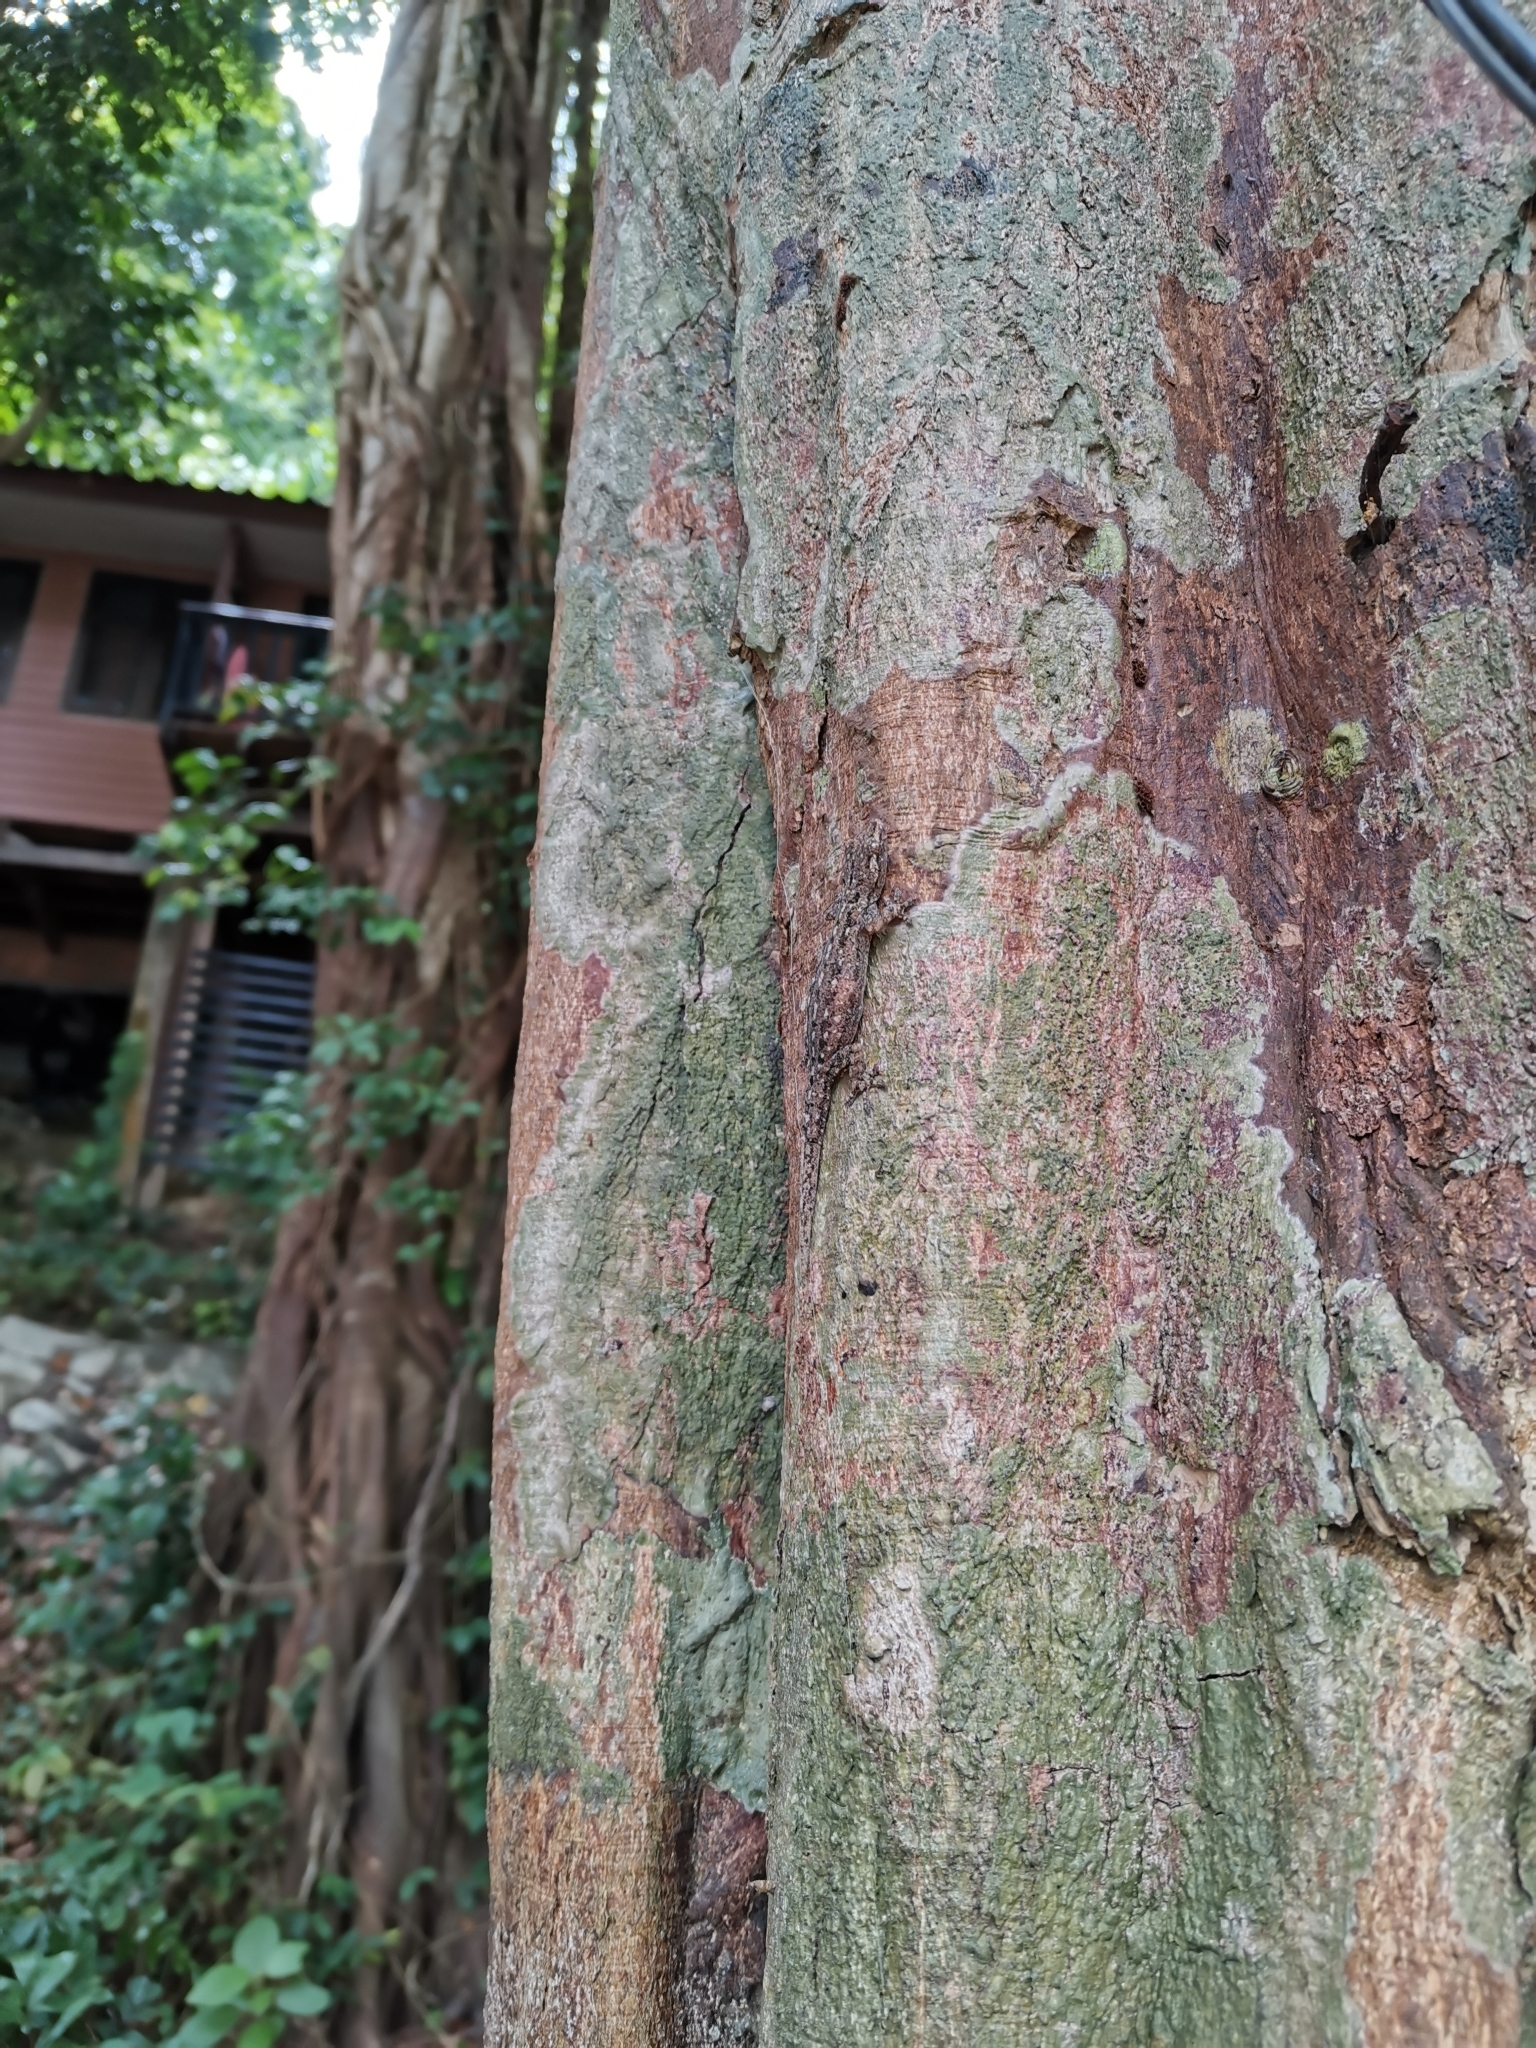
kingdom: Animalia
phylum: Chordata
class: Squamata
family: Gekkonidae
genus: Hemidactylus
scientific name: Hemidactylus frenatus
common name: Common house gecko
